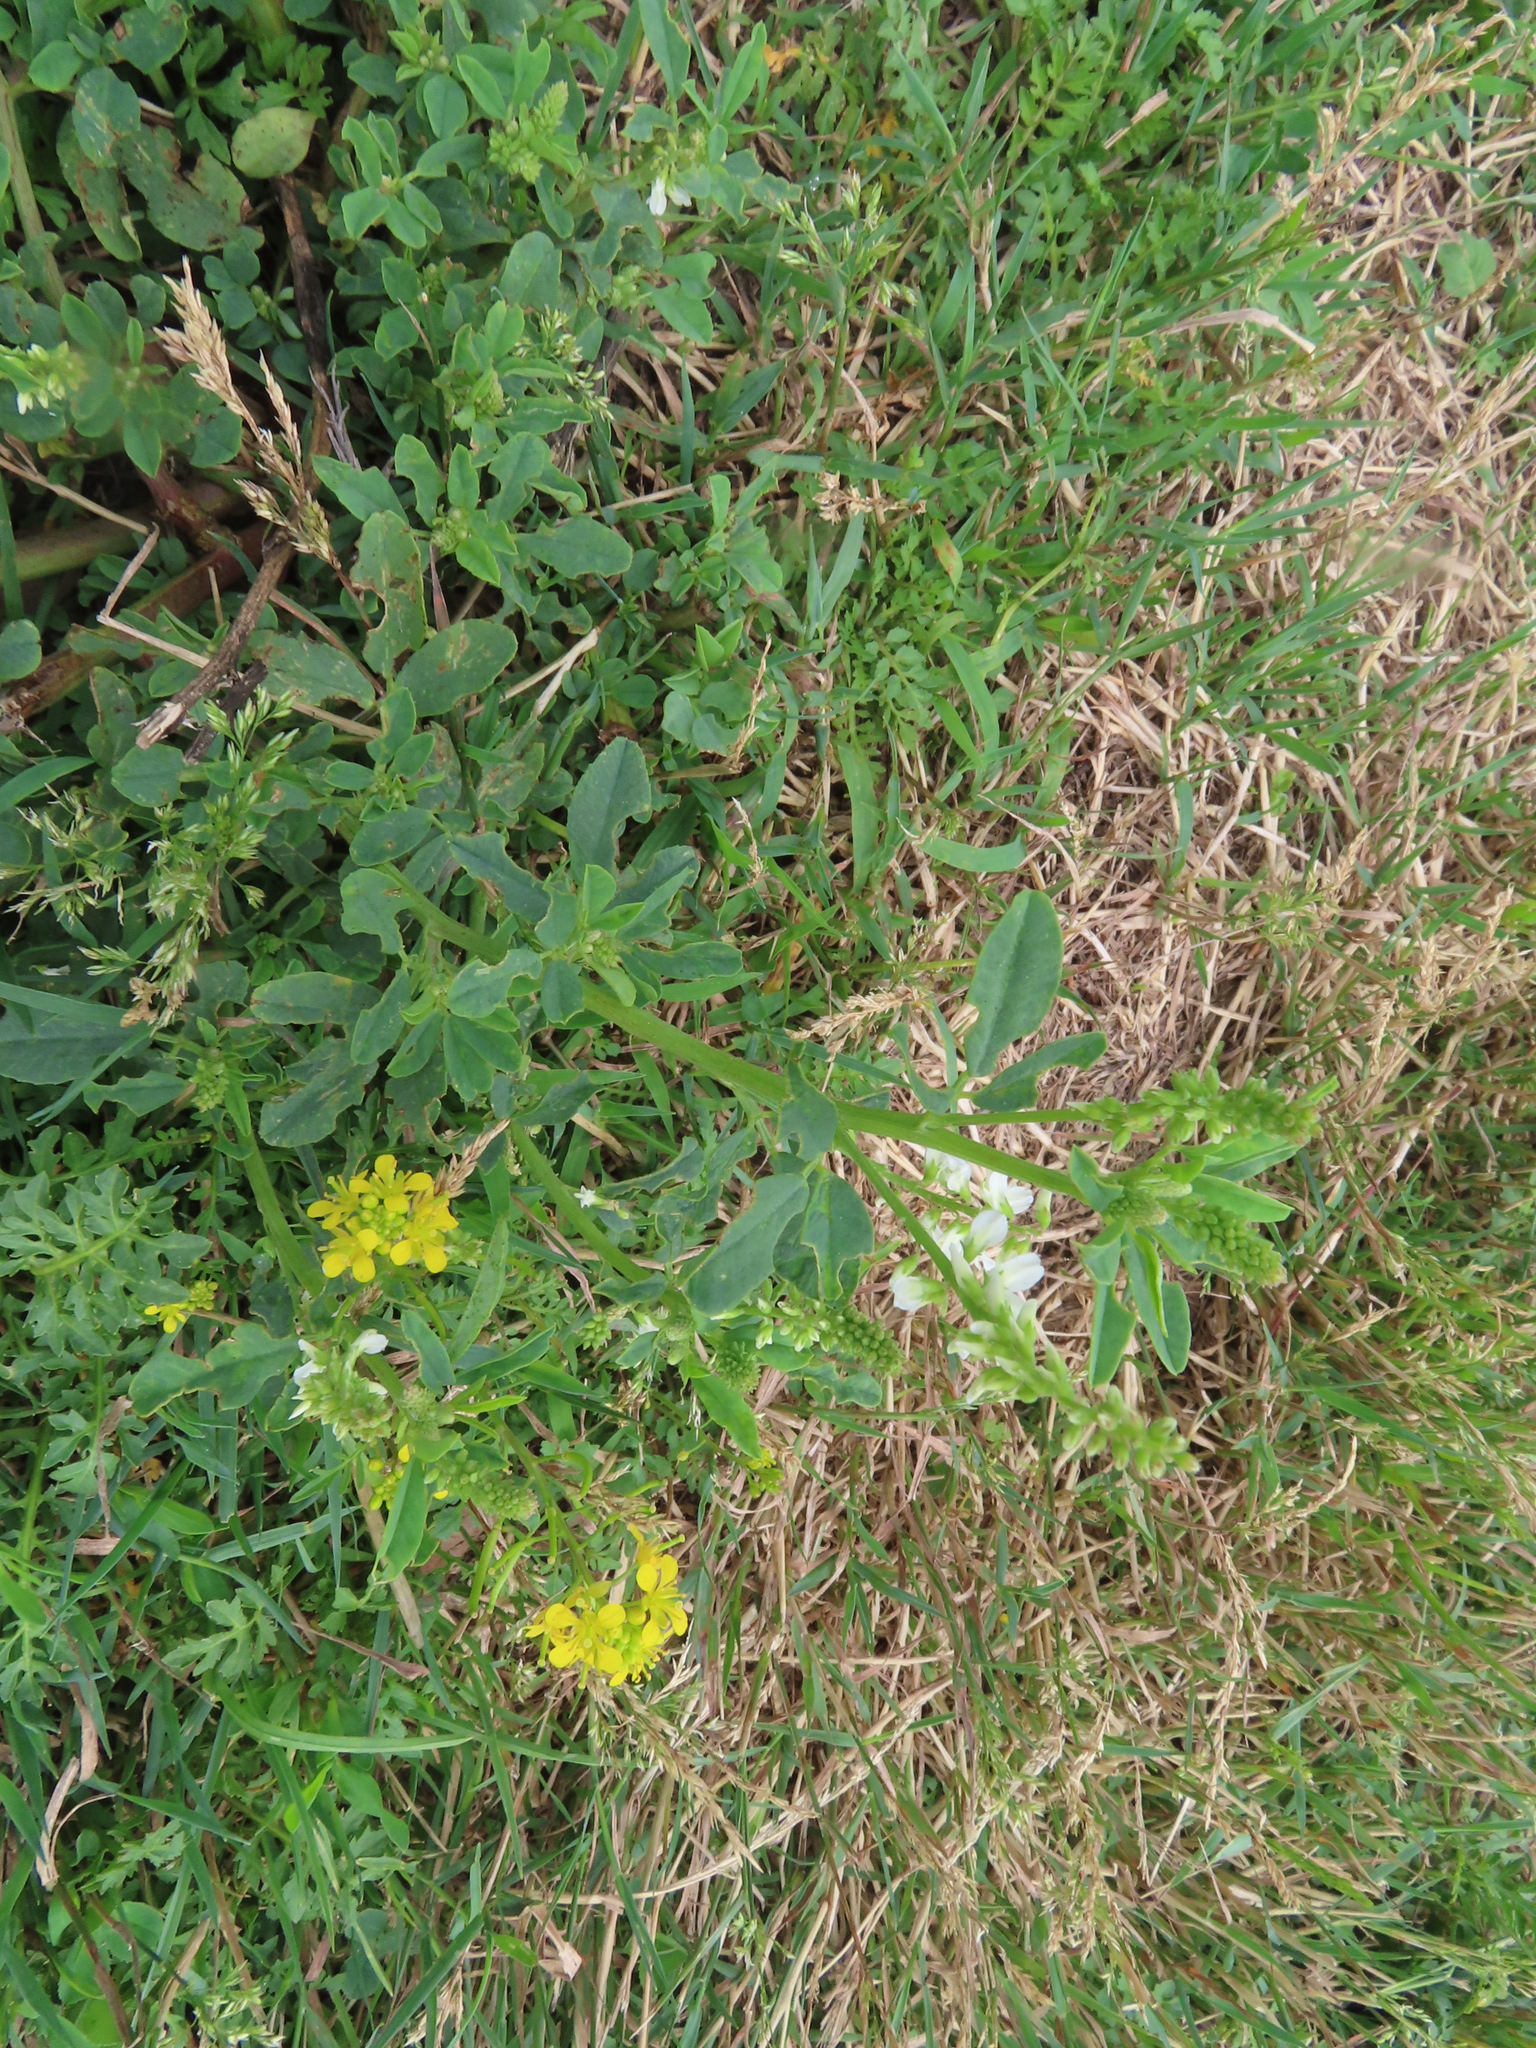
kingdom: Plantae
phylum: Tracheophyta
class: Magnoliopsida
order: Fabales
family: Fabaceae
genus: Melilotus
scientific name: Melilotus albus
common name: White melilot
